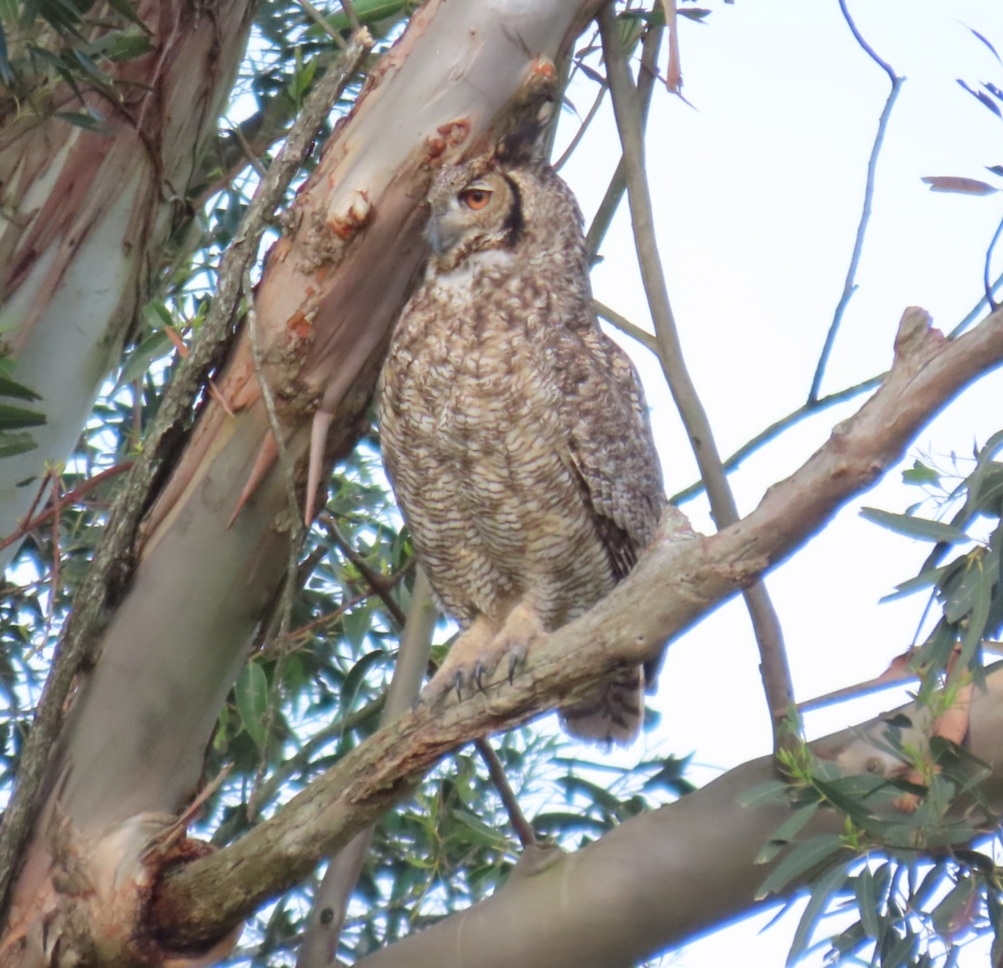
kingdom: Animalia
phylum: Chordata
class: Aves
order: Strigiformes
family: Strigidae
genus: Bubo
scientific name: Bubo virginianus
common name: Great horned owl
